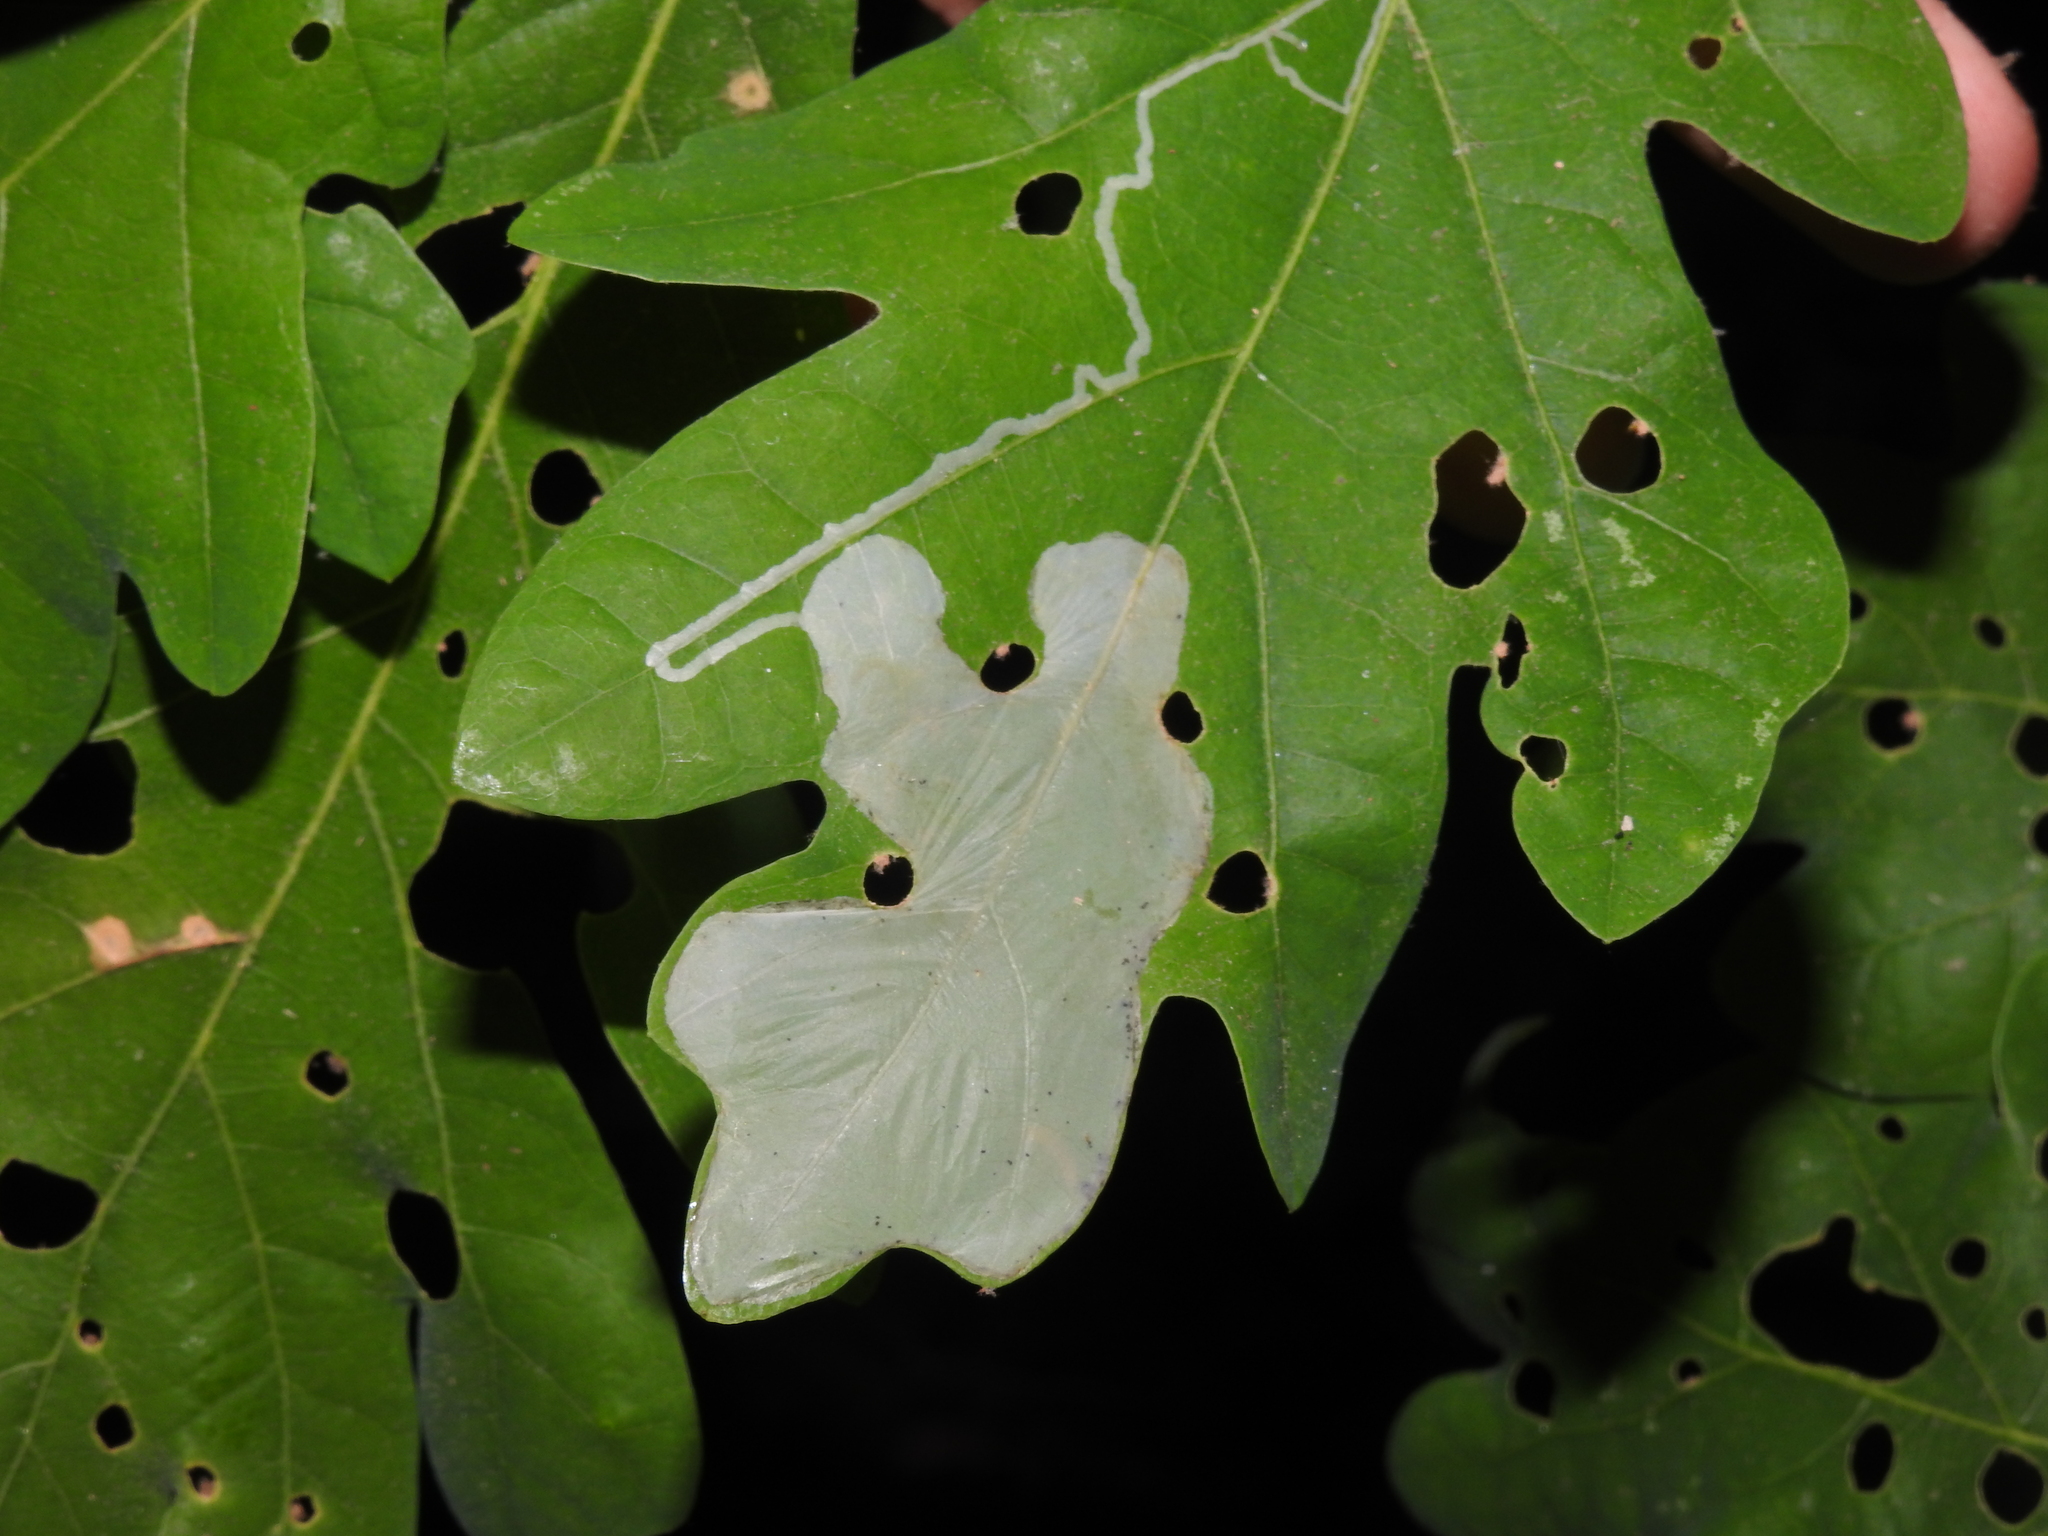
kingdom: Animalia
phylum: Arthropoda
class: Insecta
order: Lepidoptera
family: Gracillariidae
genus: Cryptolectica
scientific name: Cryptolectica
